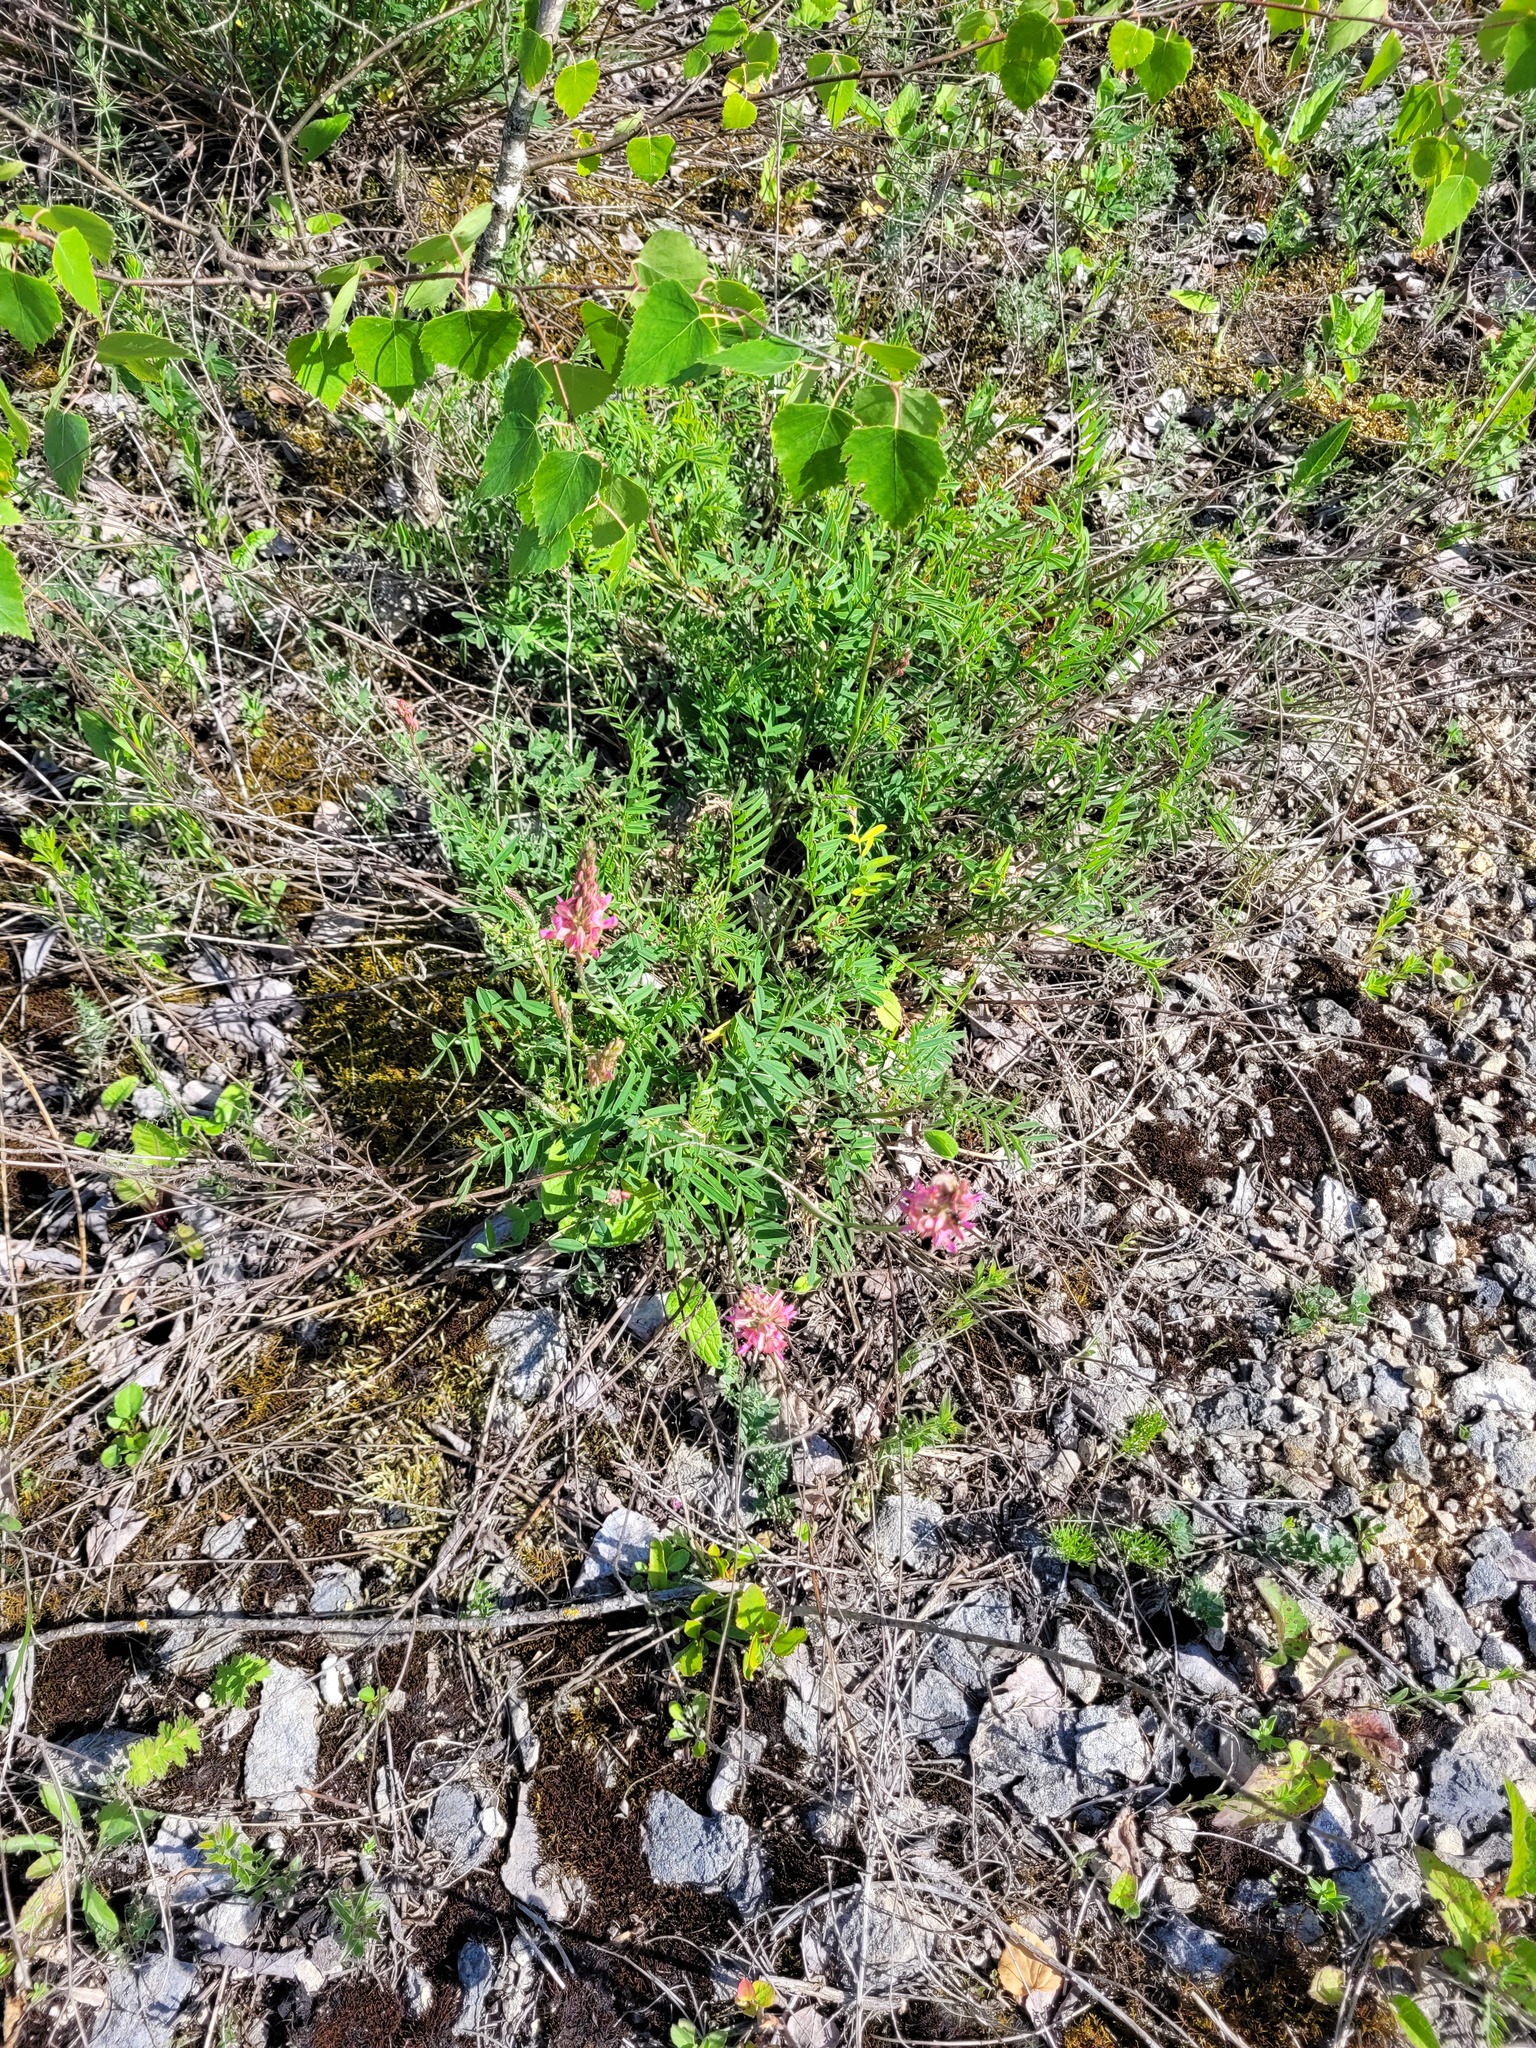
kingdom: Plantae
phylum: Tracheophyta
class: Magnoliopsida
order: Fabales
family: Fabaceae
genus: Onobrychis
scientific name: Onobrychis viciifolia
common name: Sainfoin
